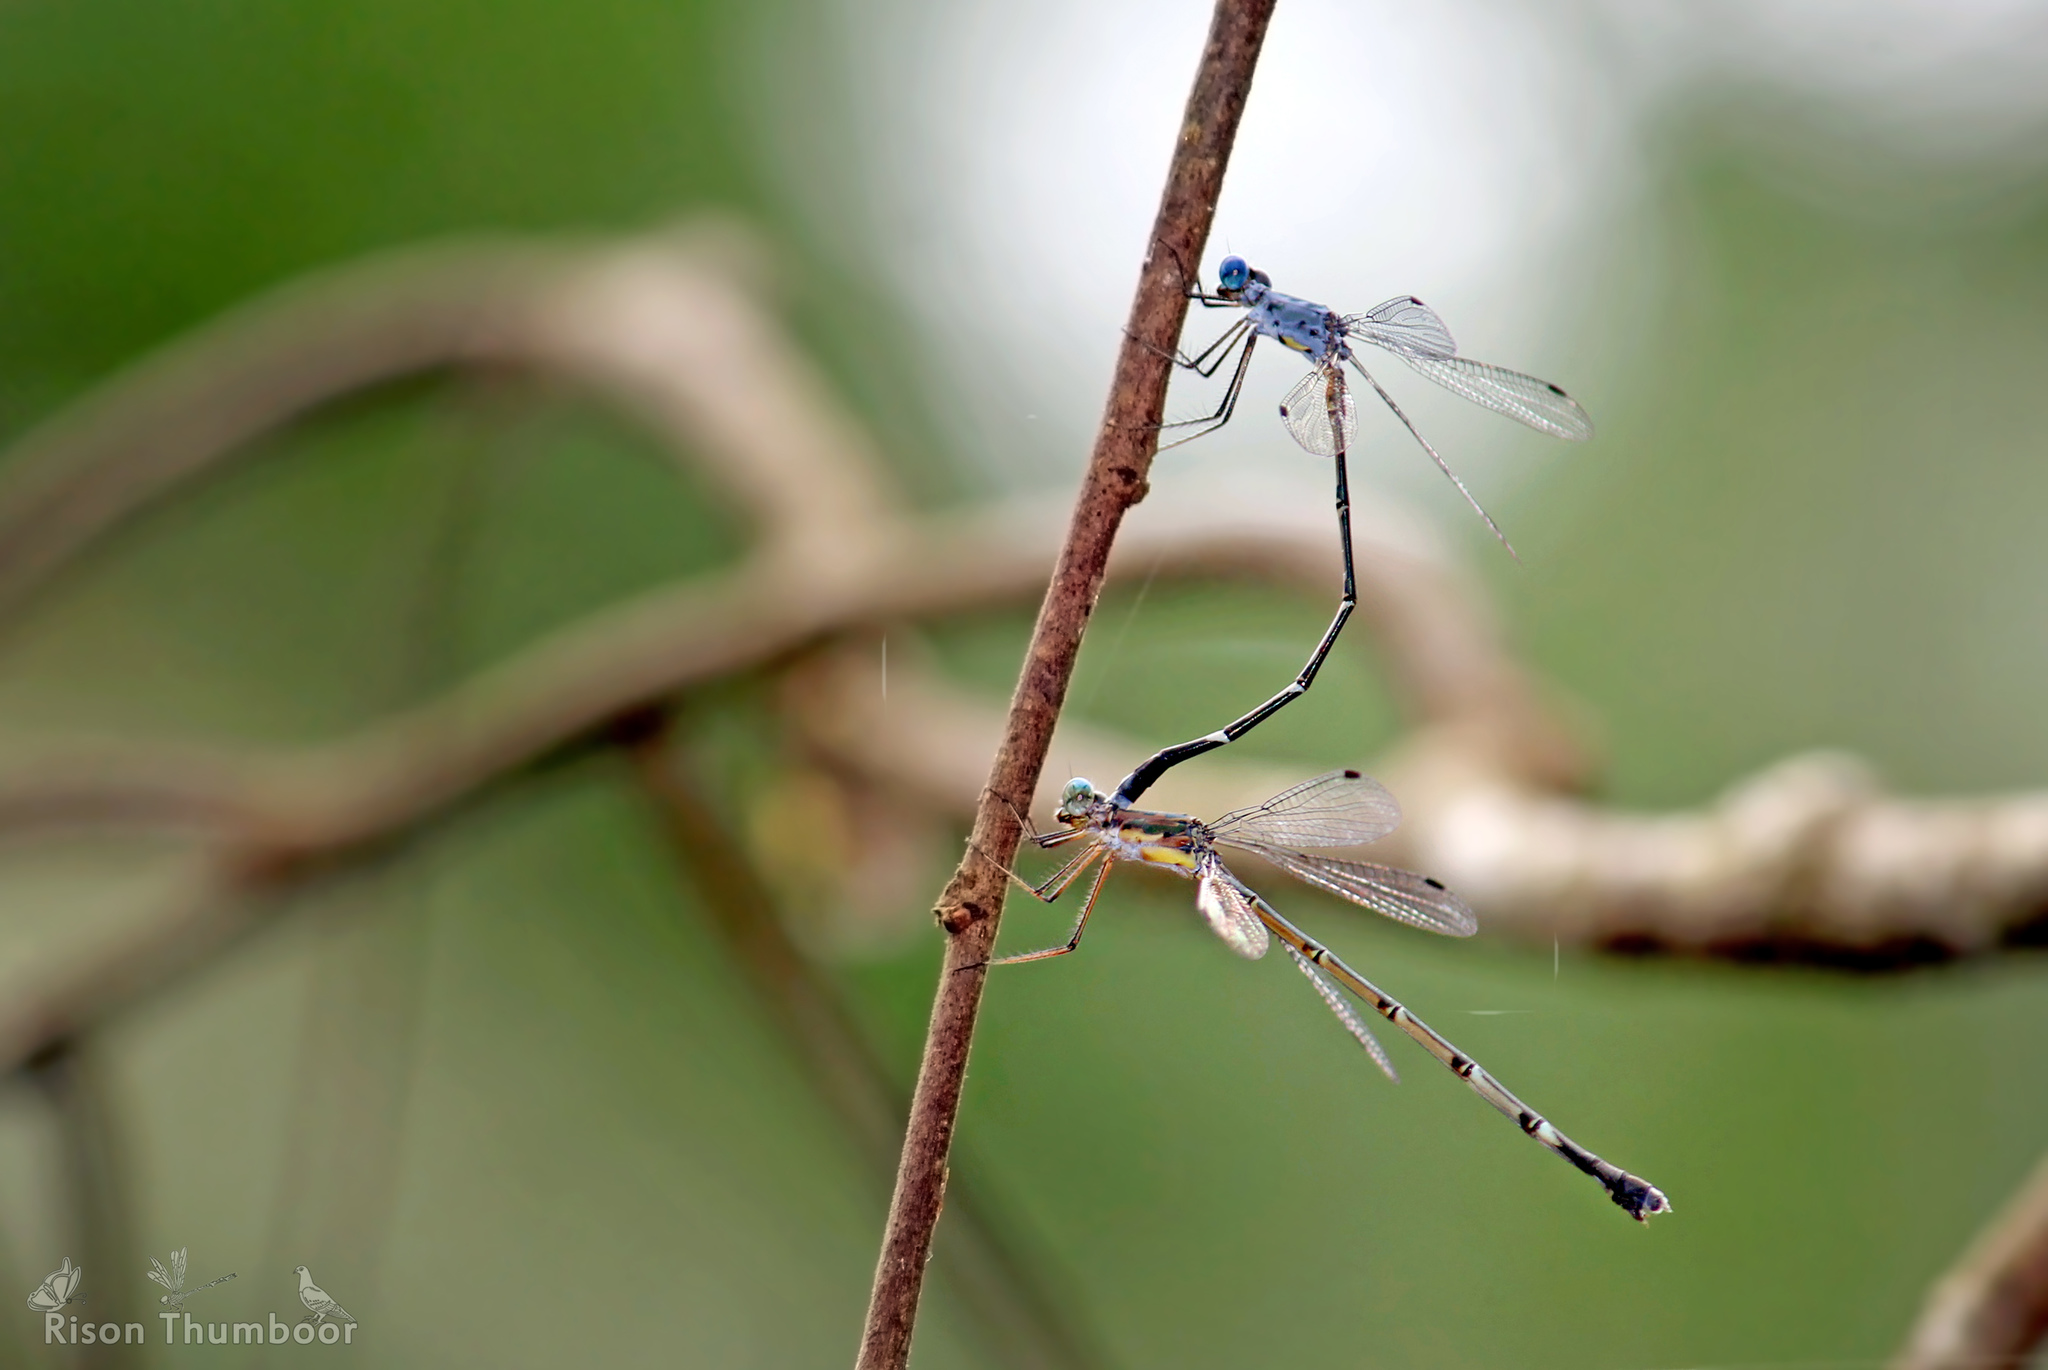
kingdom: Animalia
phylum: Arthropoda
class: Insecta
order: Odonata
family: Lestidae
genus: Lestes
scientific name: Lestes dorothea
